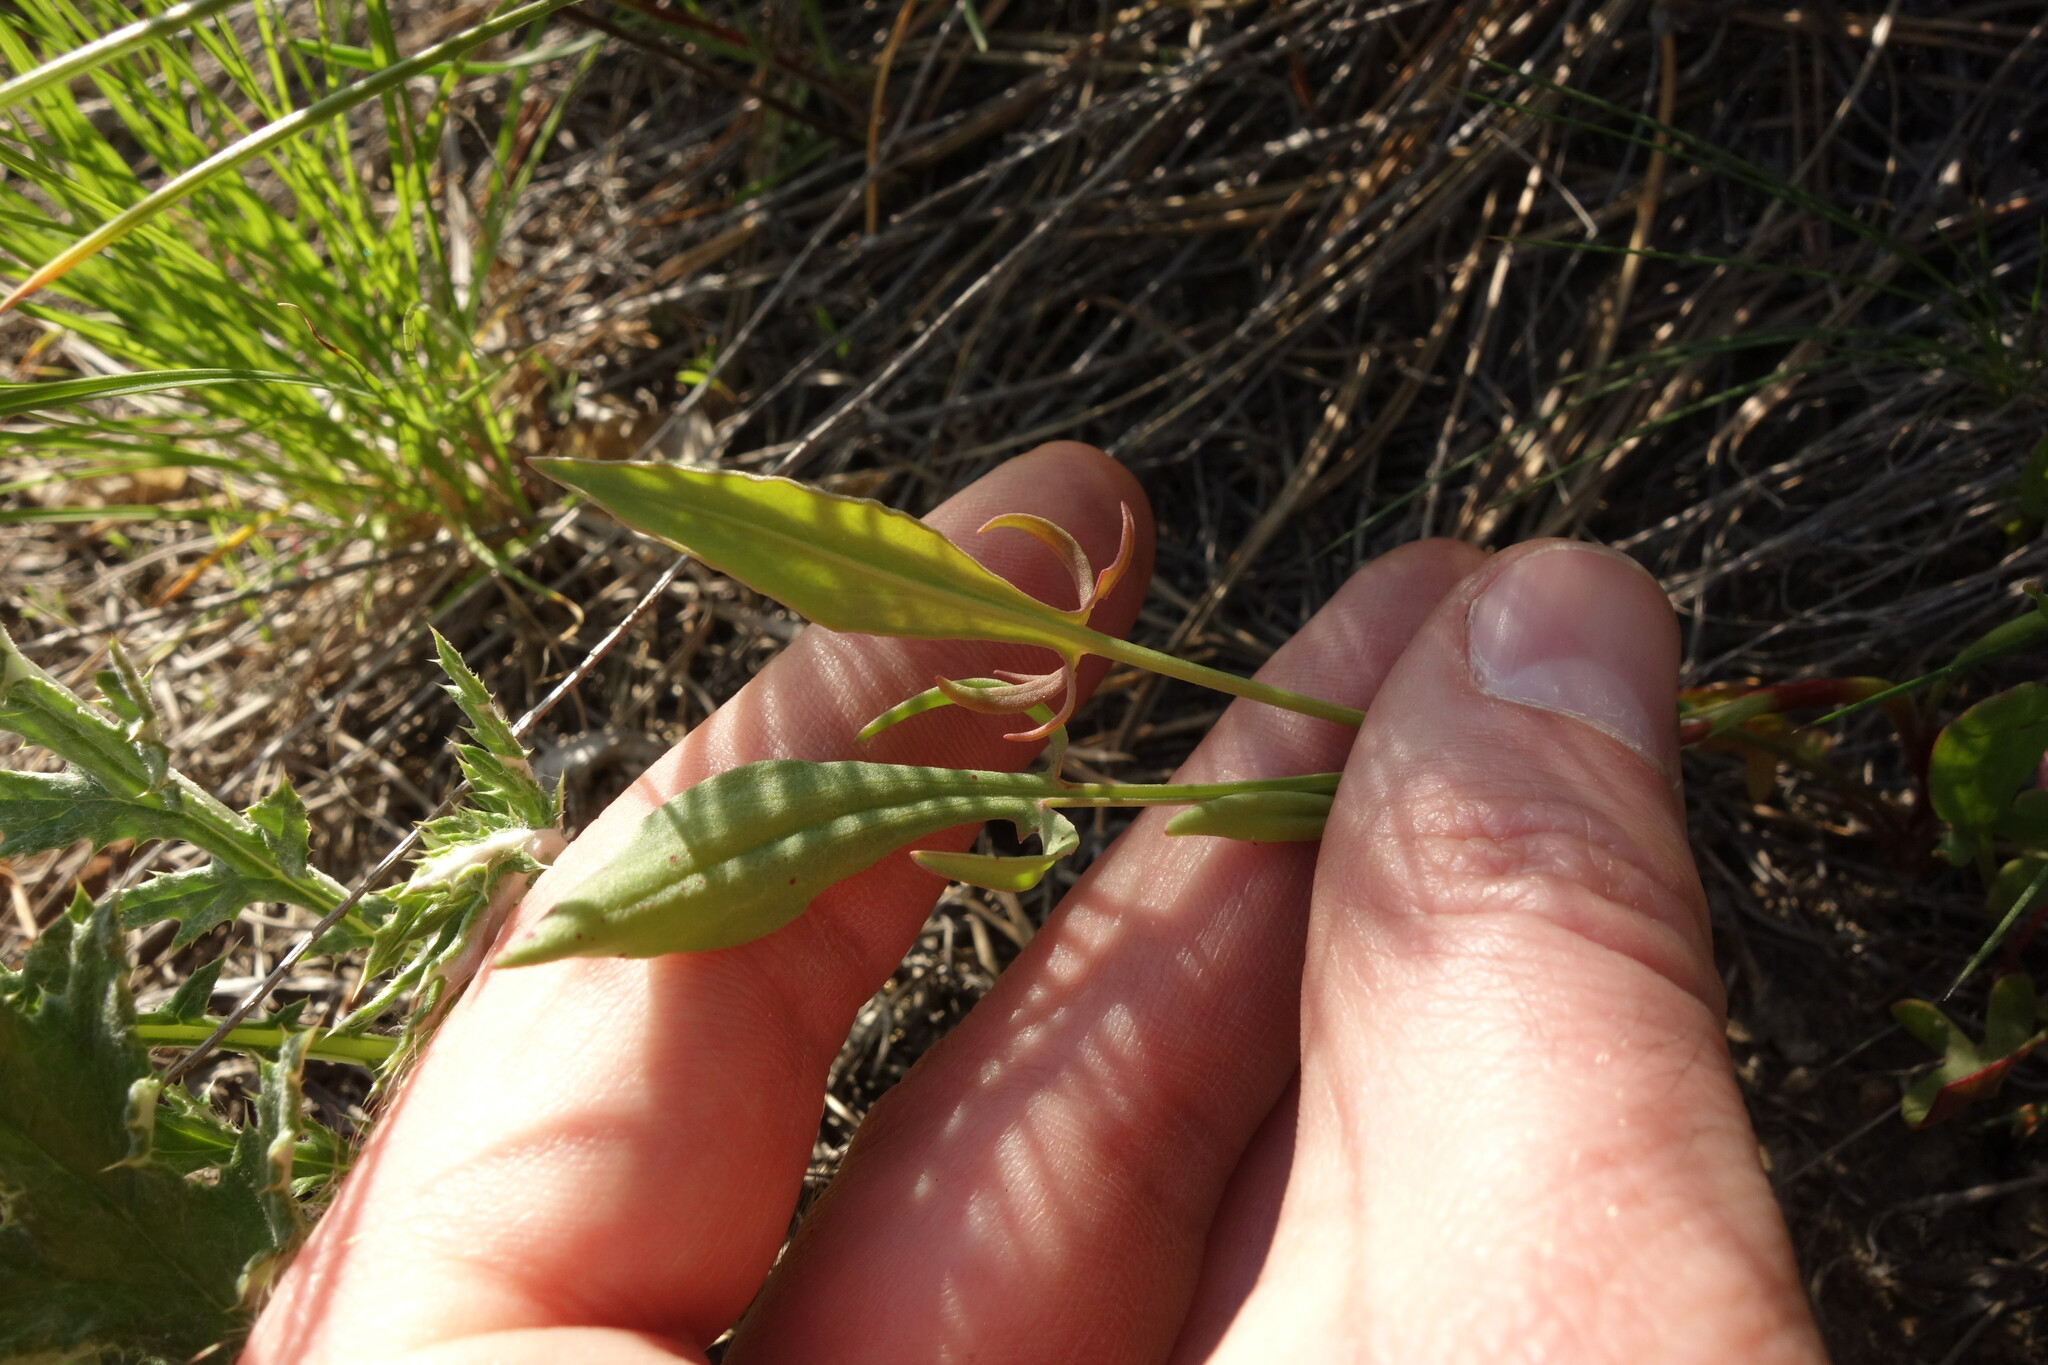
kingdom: Plantae
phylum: Tracheophyta
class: Magnoliopsida
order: Caryophyllales
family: Polygonaceae
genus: Rumex
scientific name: Rumex acetosella
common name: Common sheep sorrel
